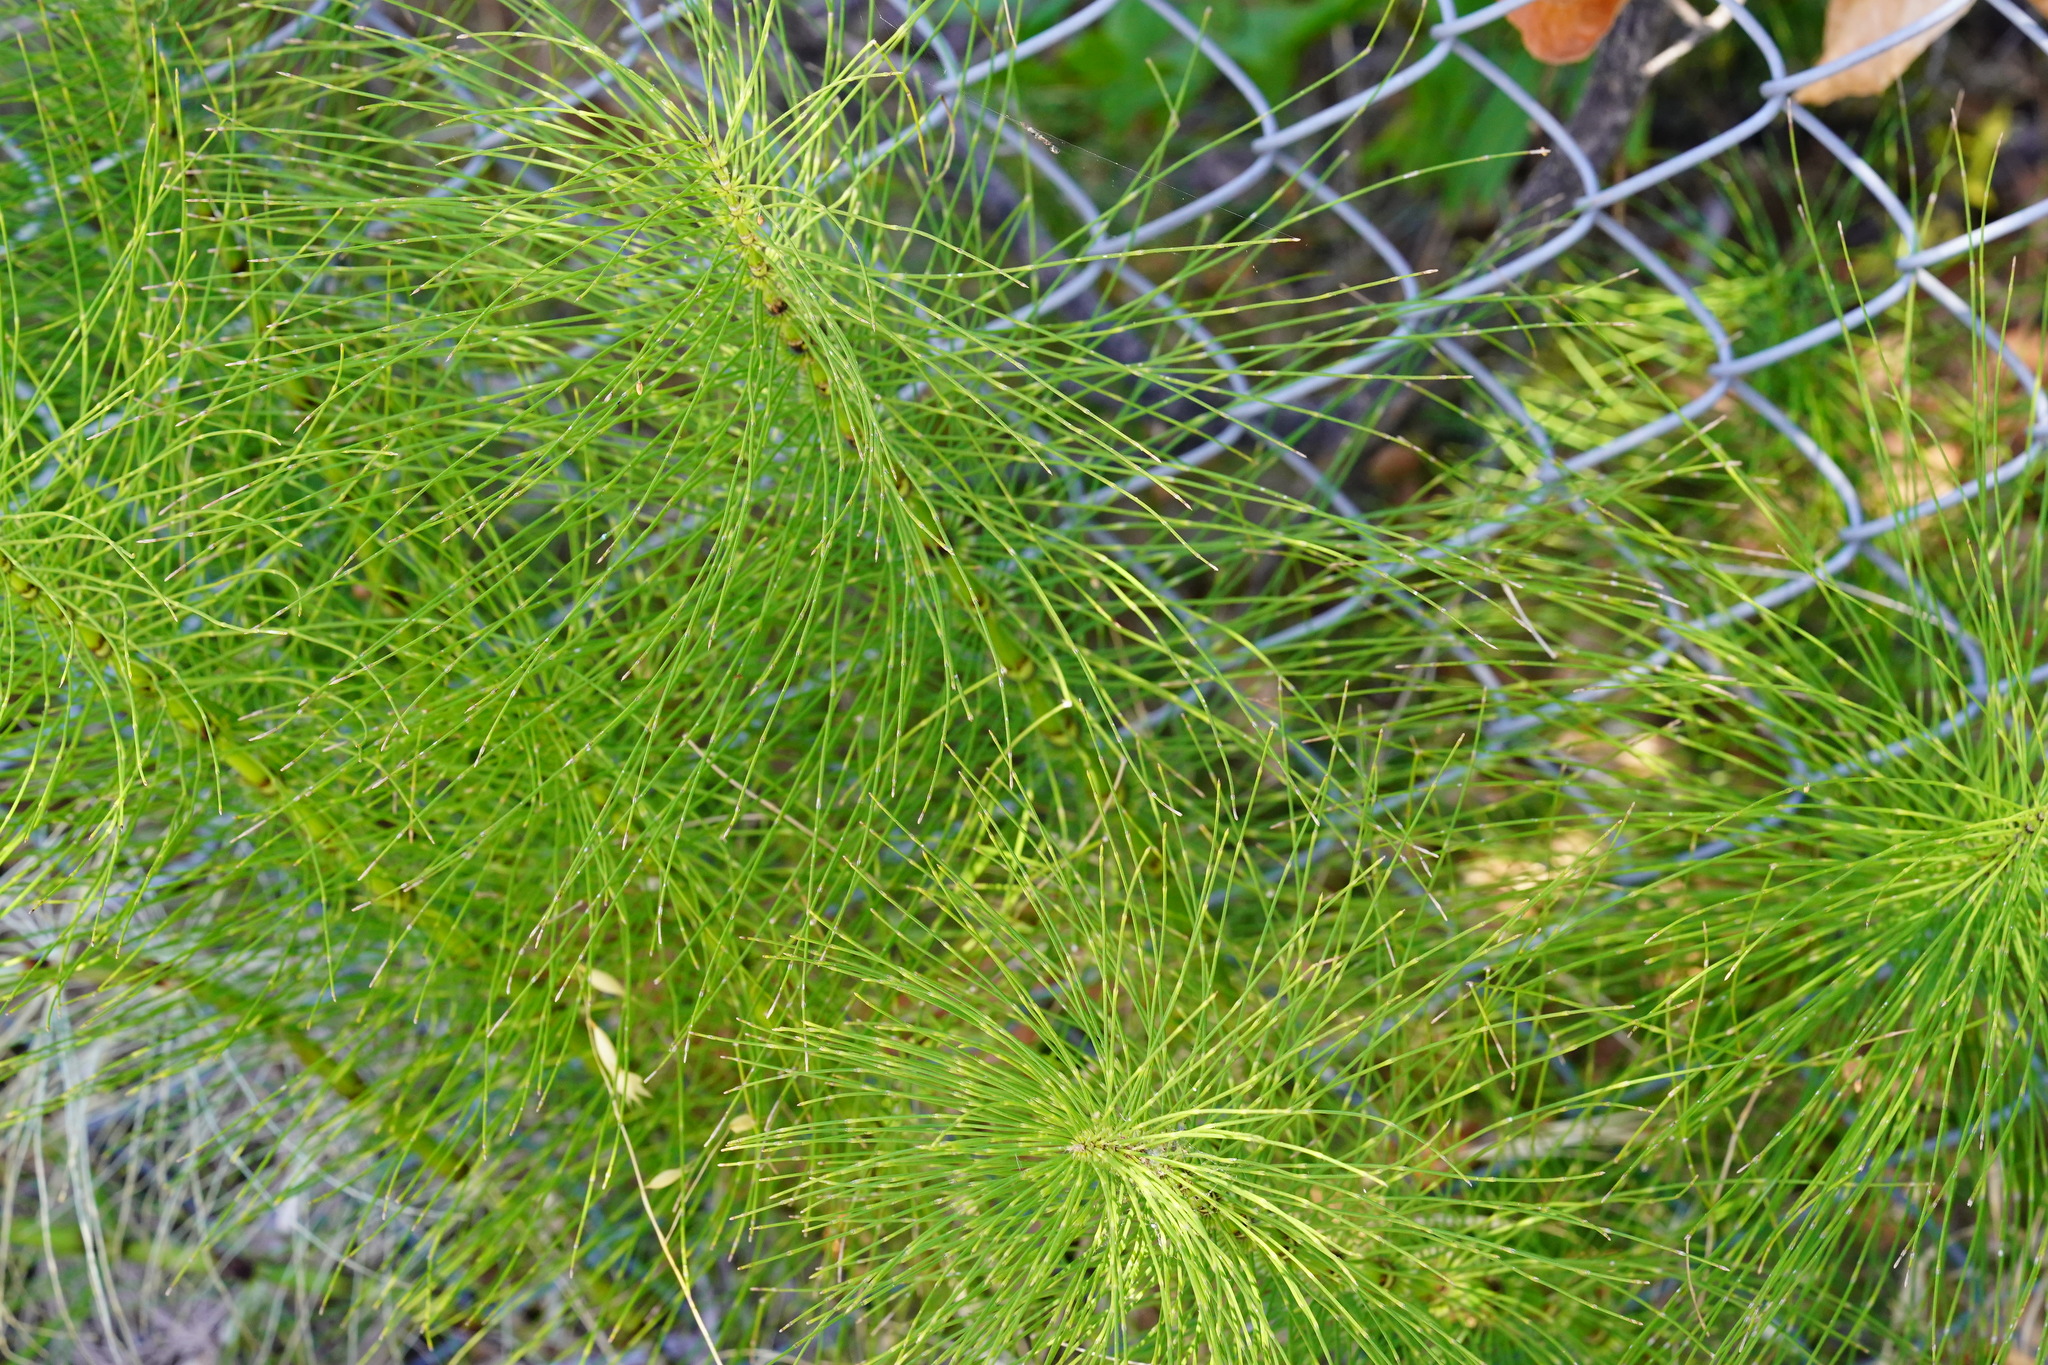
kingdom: Plantae
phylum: Tracheophyta
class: Polypodiopsida
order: Equisetales
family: Equisetaceae
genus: Equisetum
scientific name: Equisetum telmateia
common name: Great horsetail
